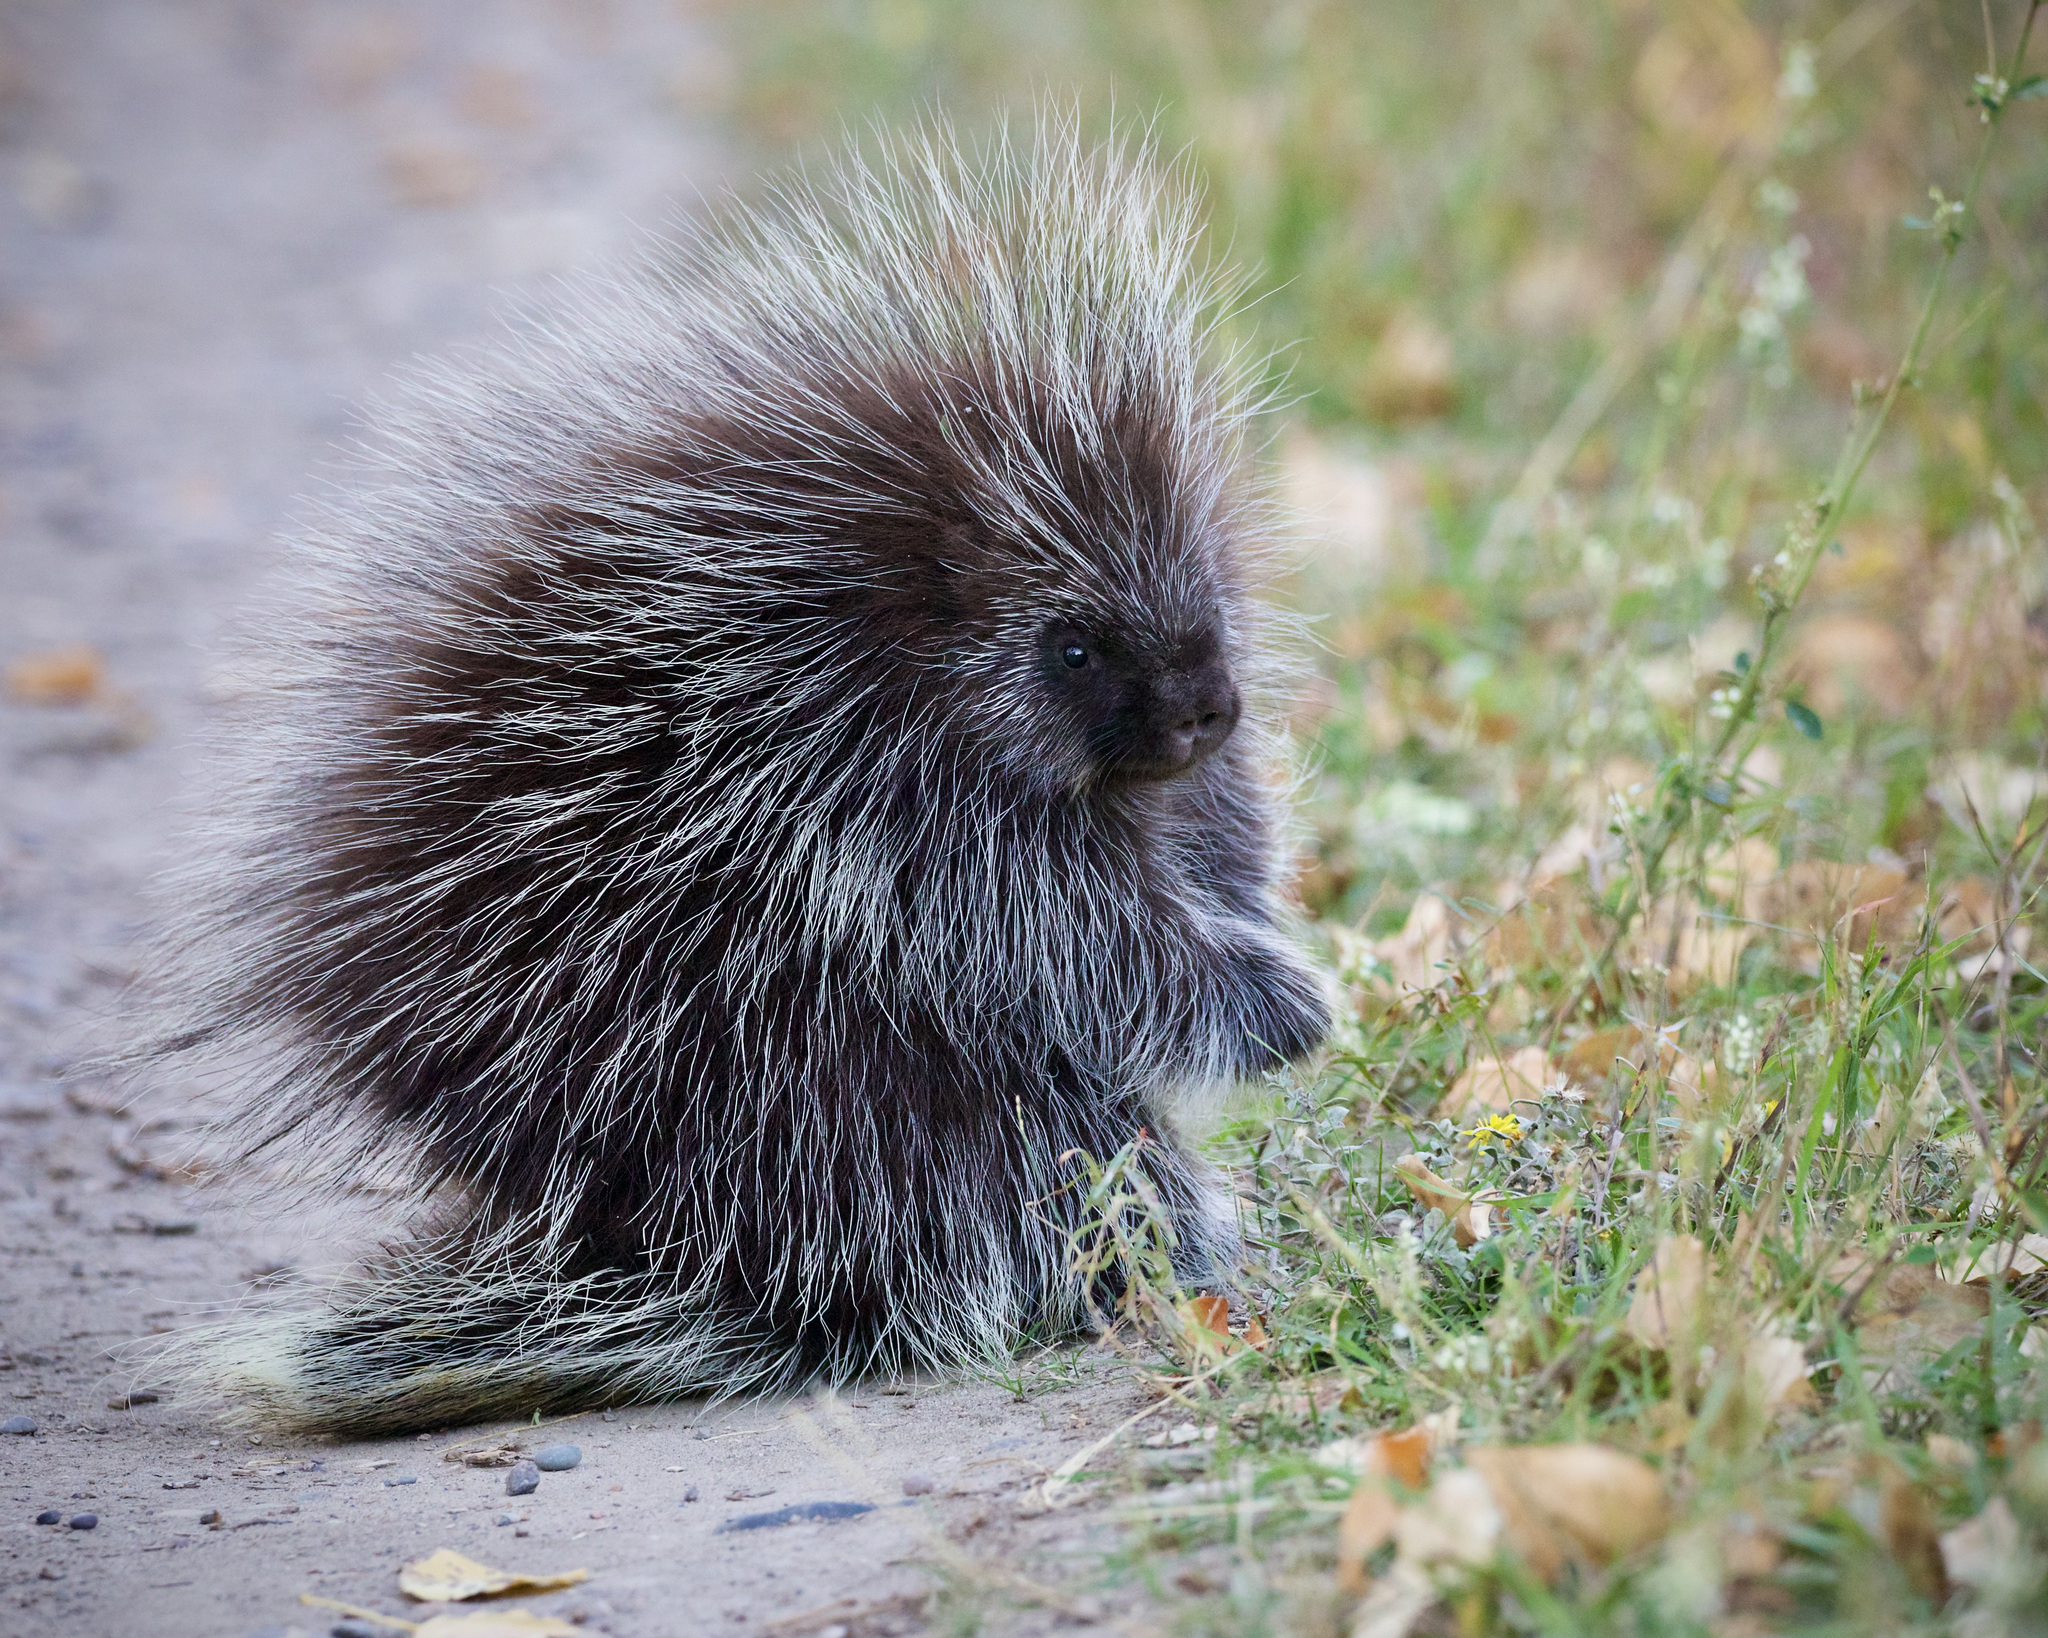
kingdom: Animalia
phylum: Chordata
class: Mammalia
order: Rodentia
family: Erethizontidae
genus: Erethizon
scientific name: Erethizon dorsatus
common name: North american porcupine
